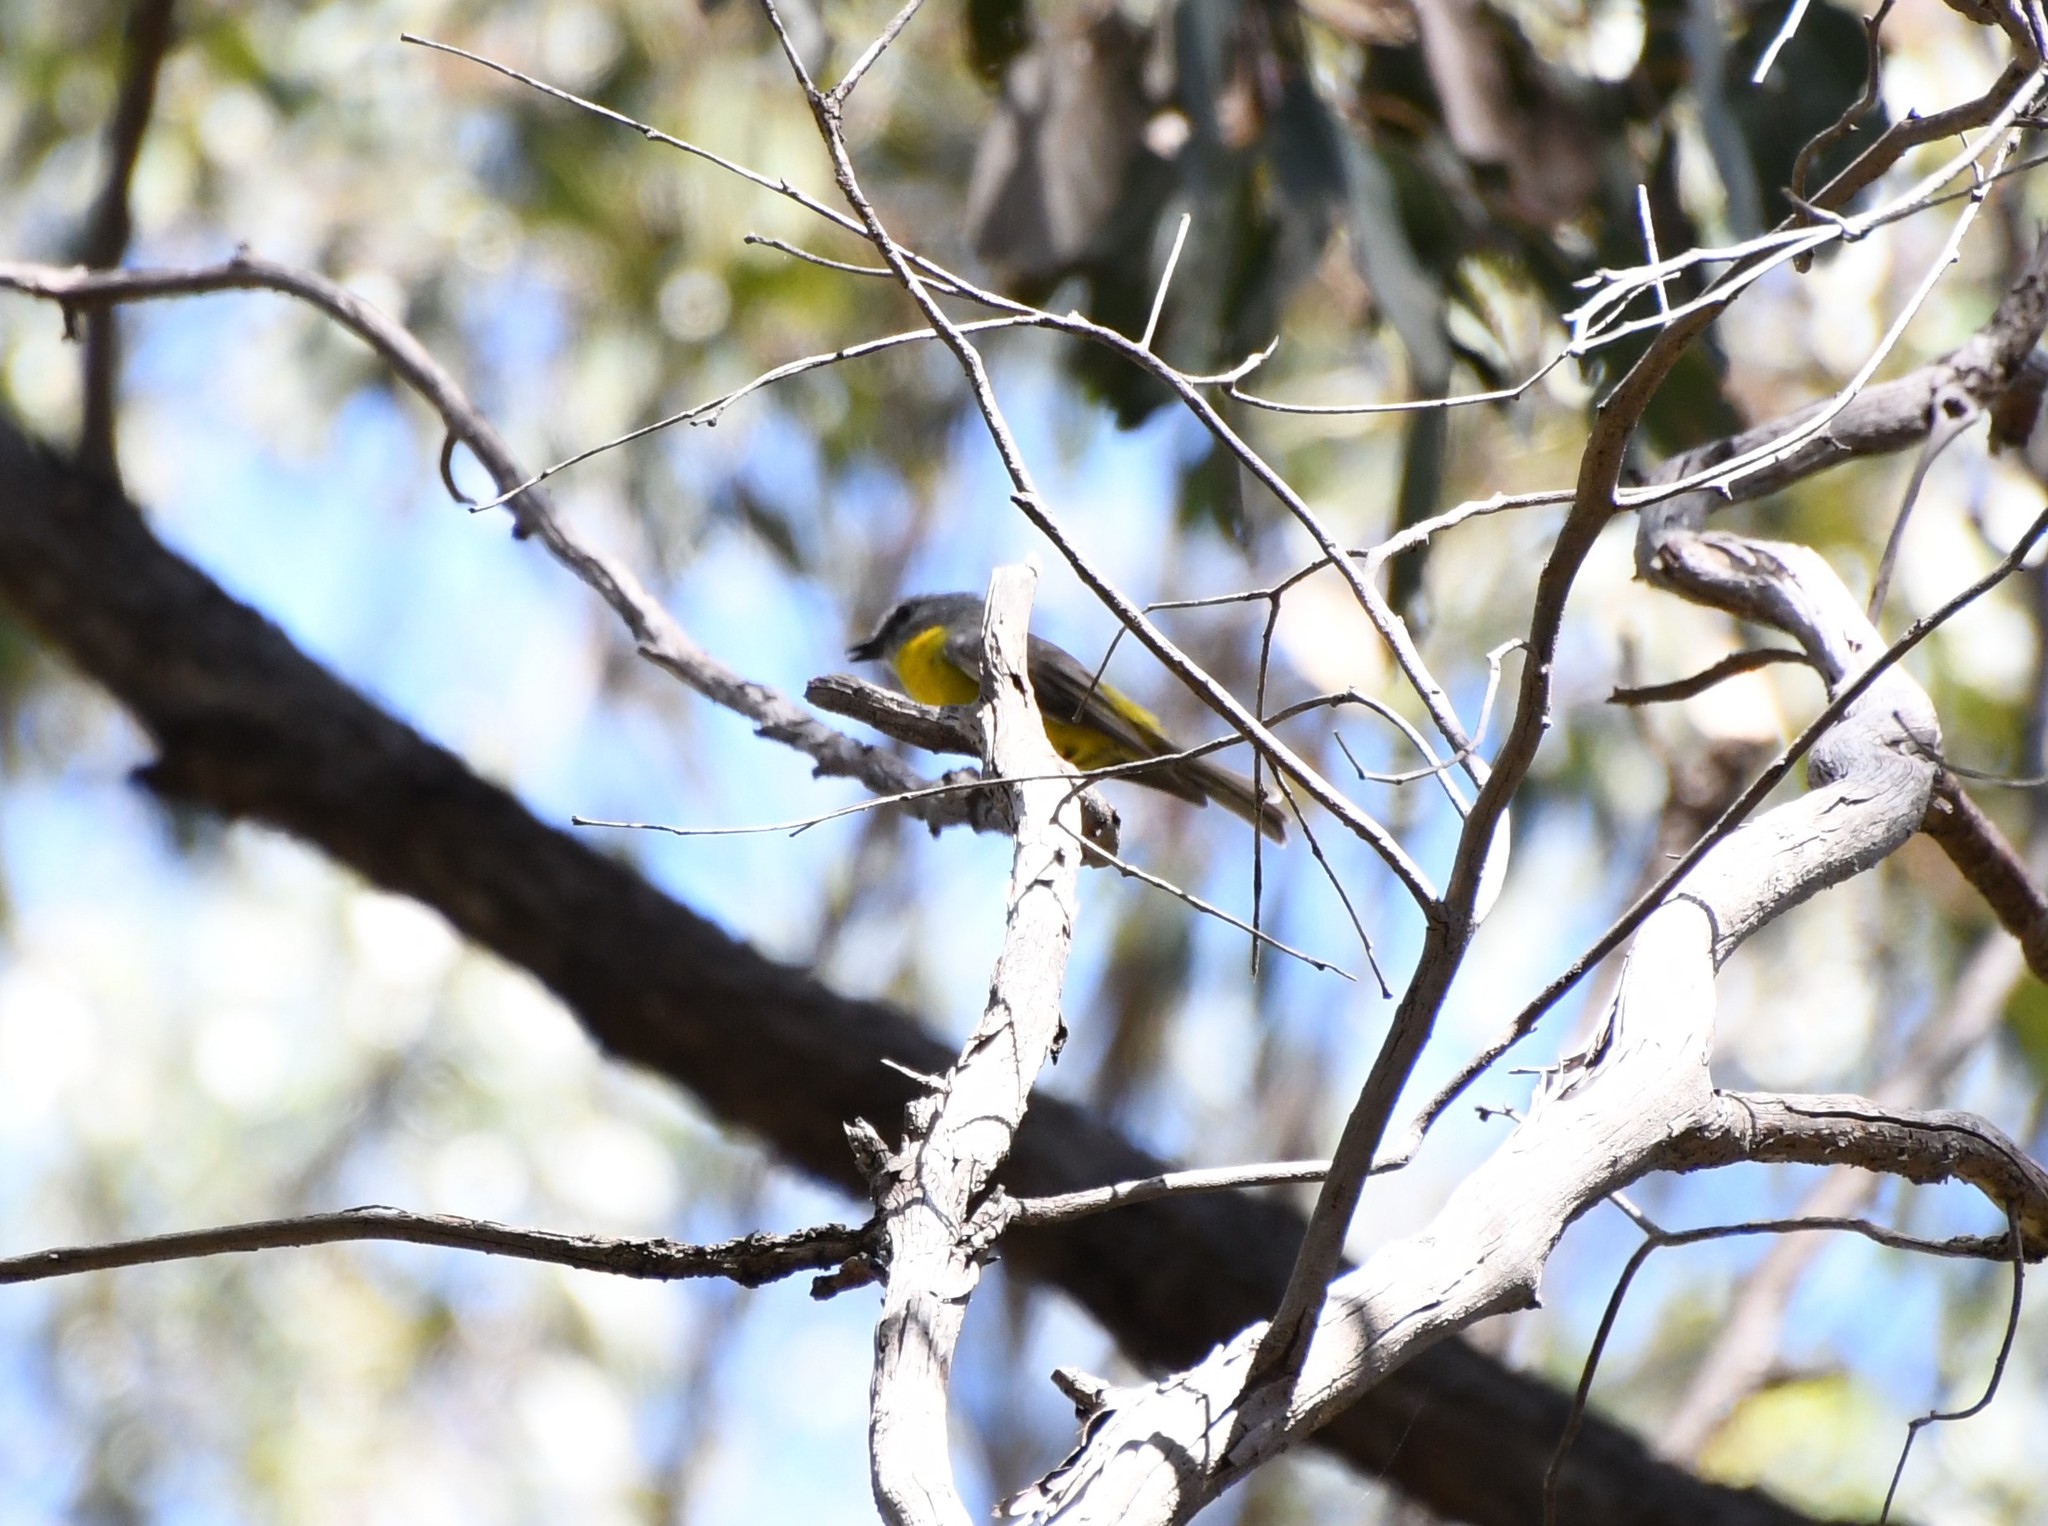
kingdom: Animalia
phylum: Chordata
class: Aves
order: Passeriformes
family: Petroicidae
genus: Eopsaltria
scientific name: Eopsaltria australis
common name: Eastern yellow robin
